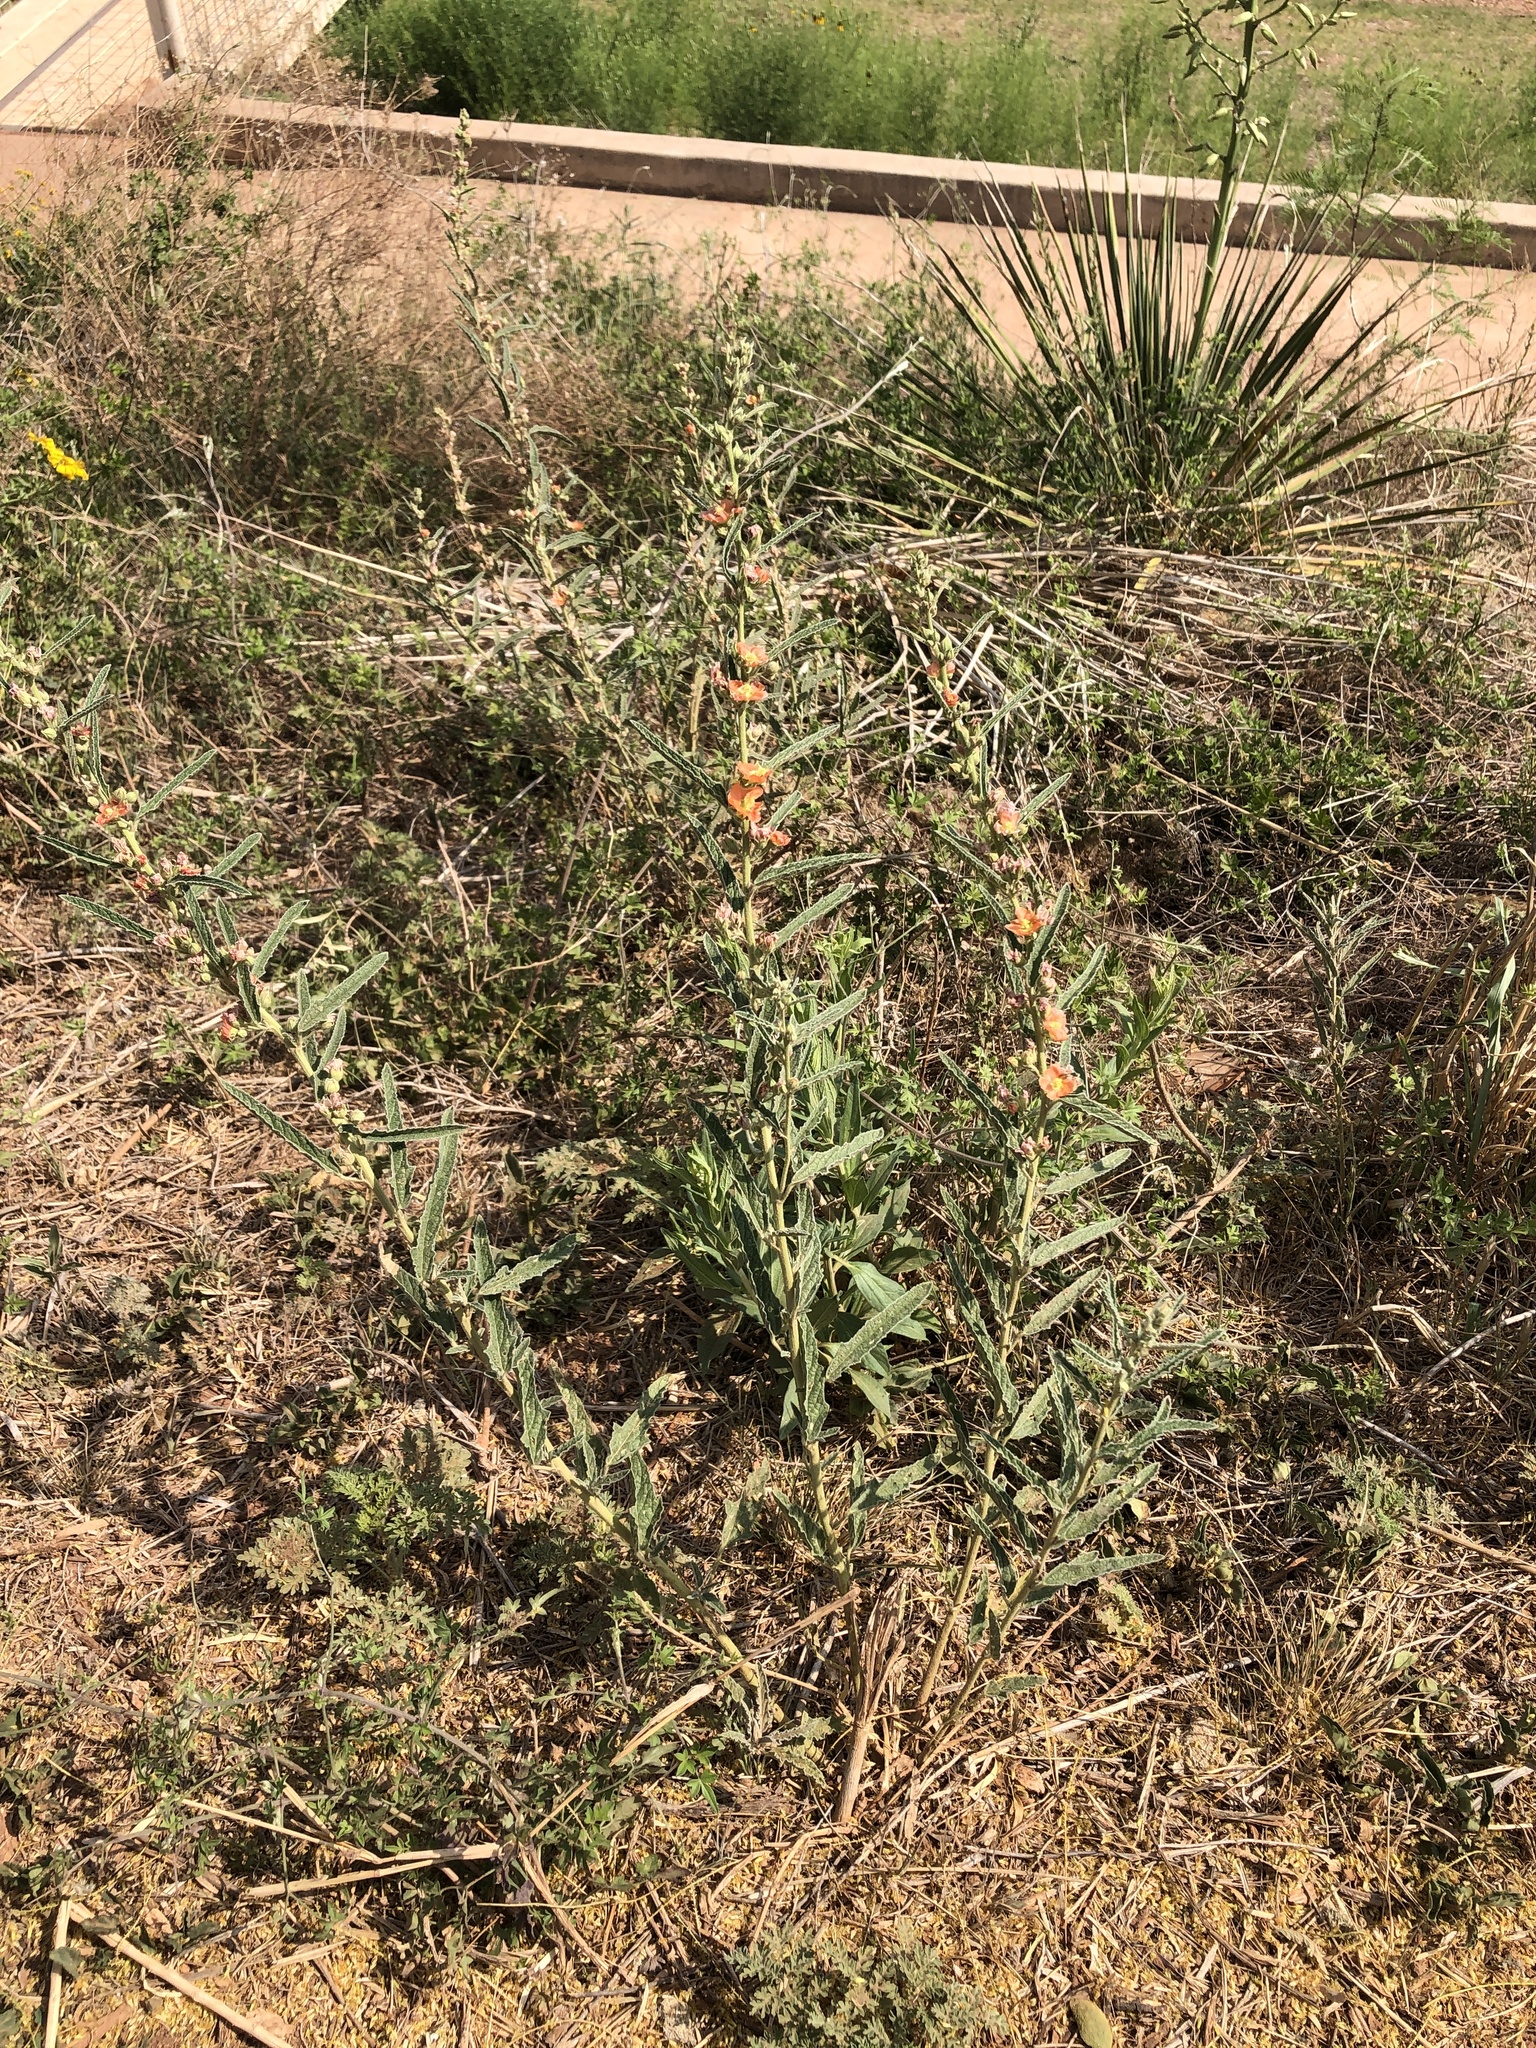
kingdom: Plantae
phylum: Tracheophyta
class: Magnoliopsida
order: Malvales
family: Malvaceae
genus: Sphaeralcea
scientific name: Sphaeralcea angustifolia
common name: Copper globe-mallow
